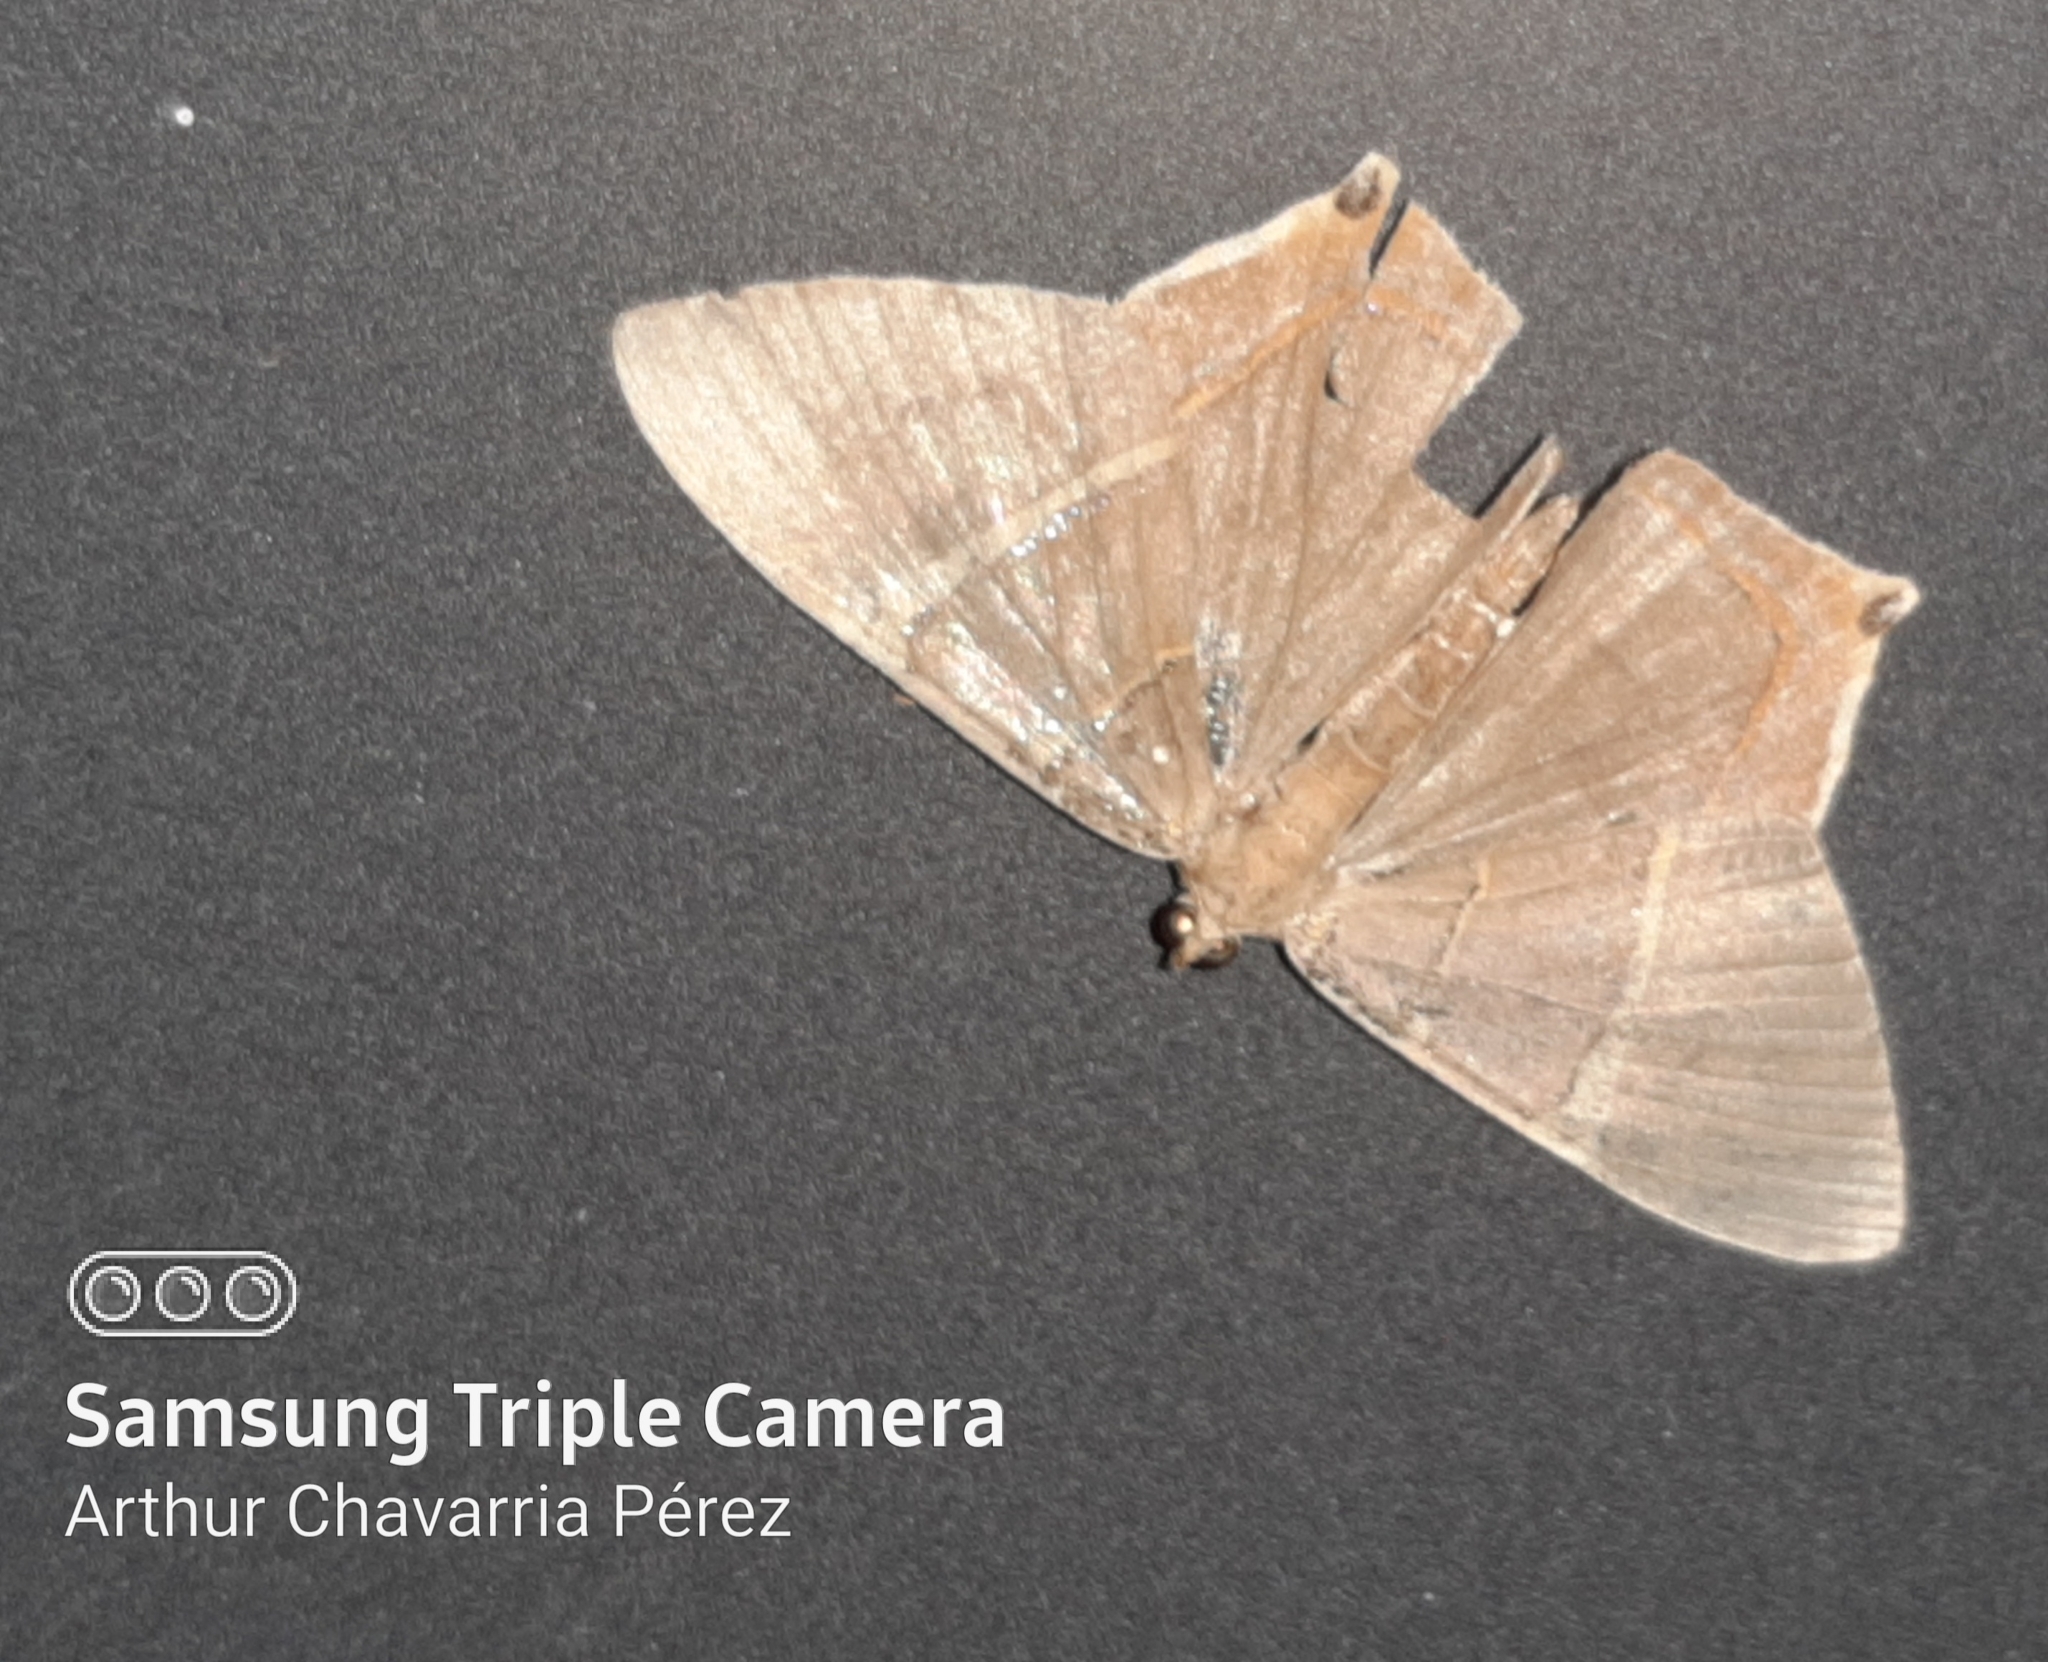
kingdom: Animalia
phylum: Arthropoda
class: Insecta
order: Lepidoptera
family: Geometridae
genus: Phrygionis
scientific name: Phrygionis polita
